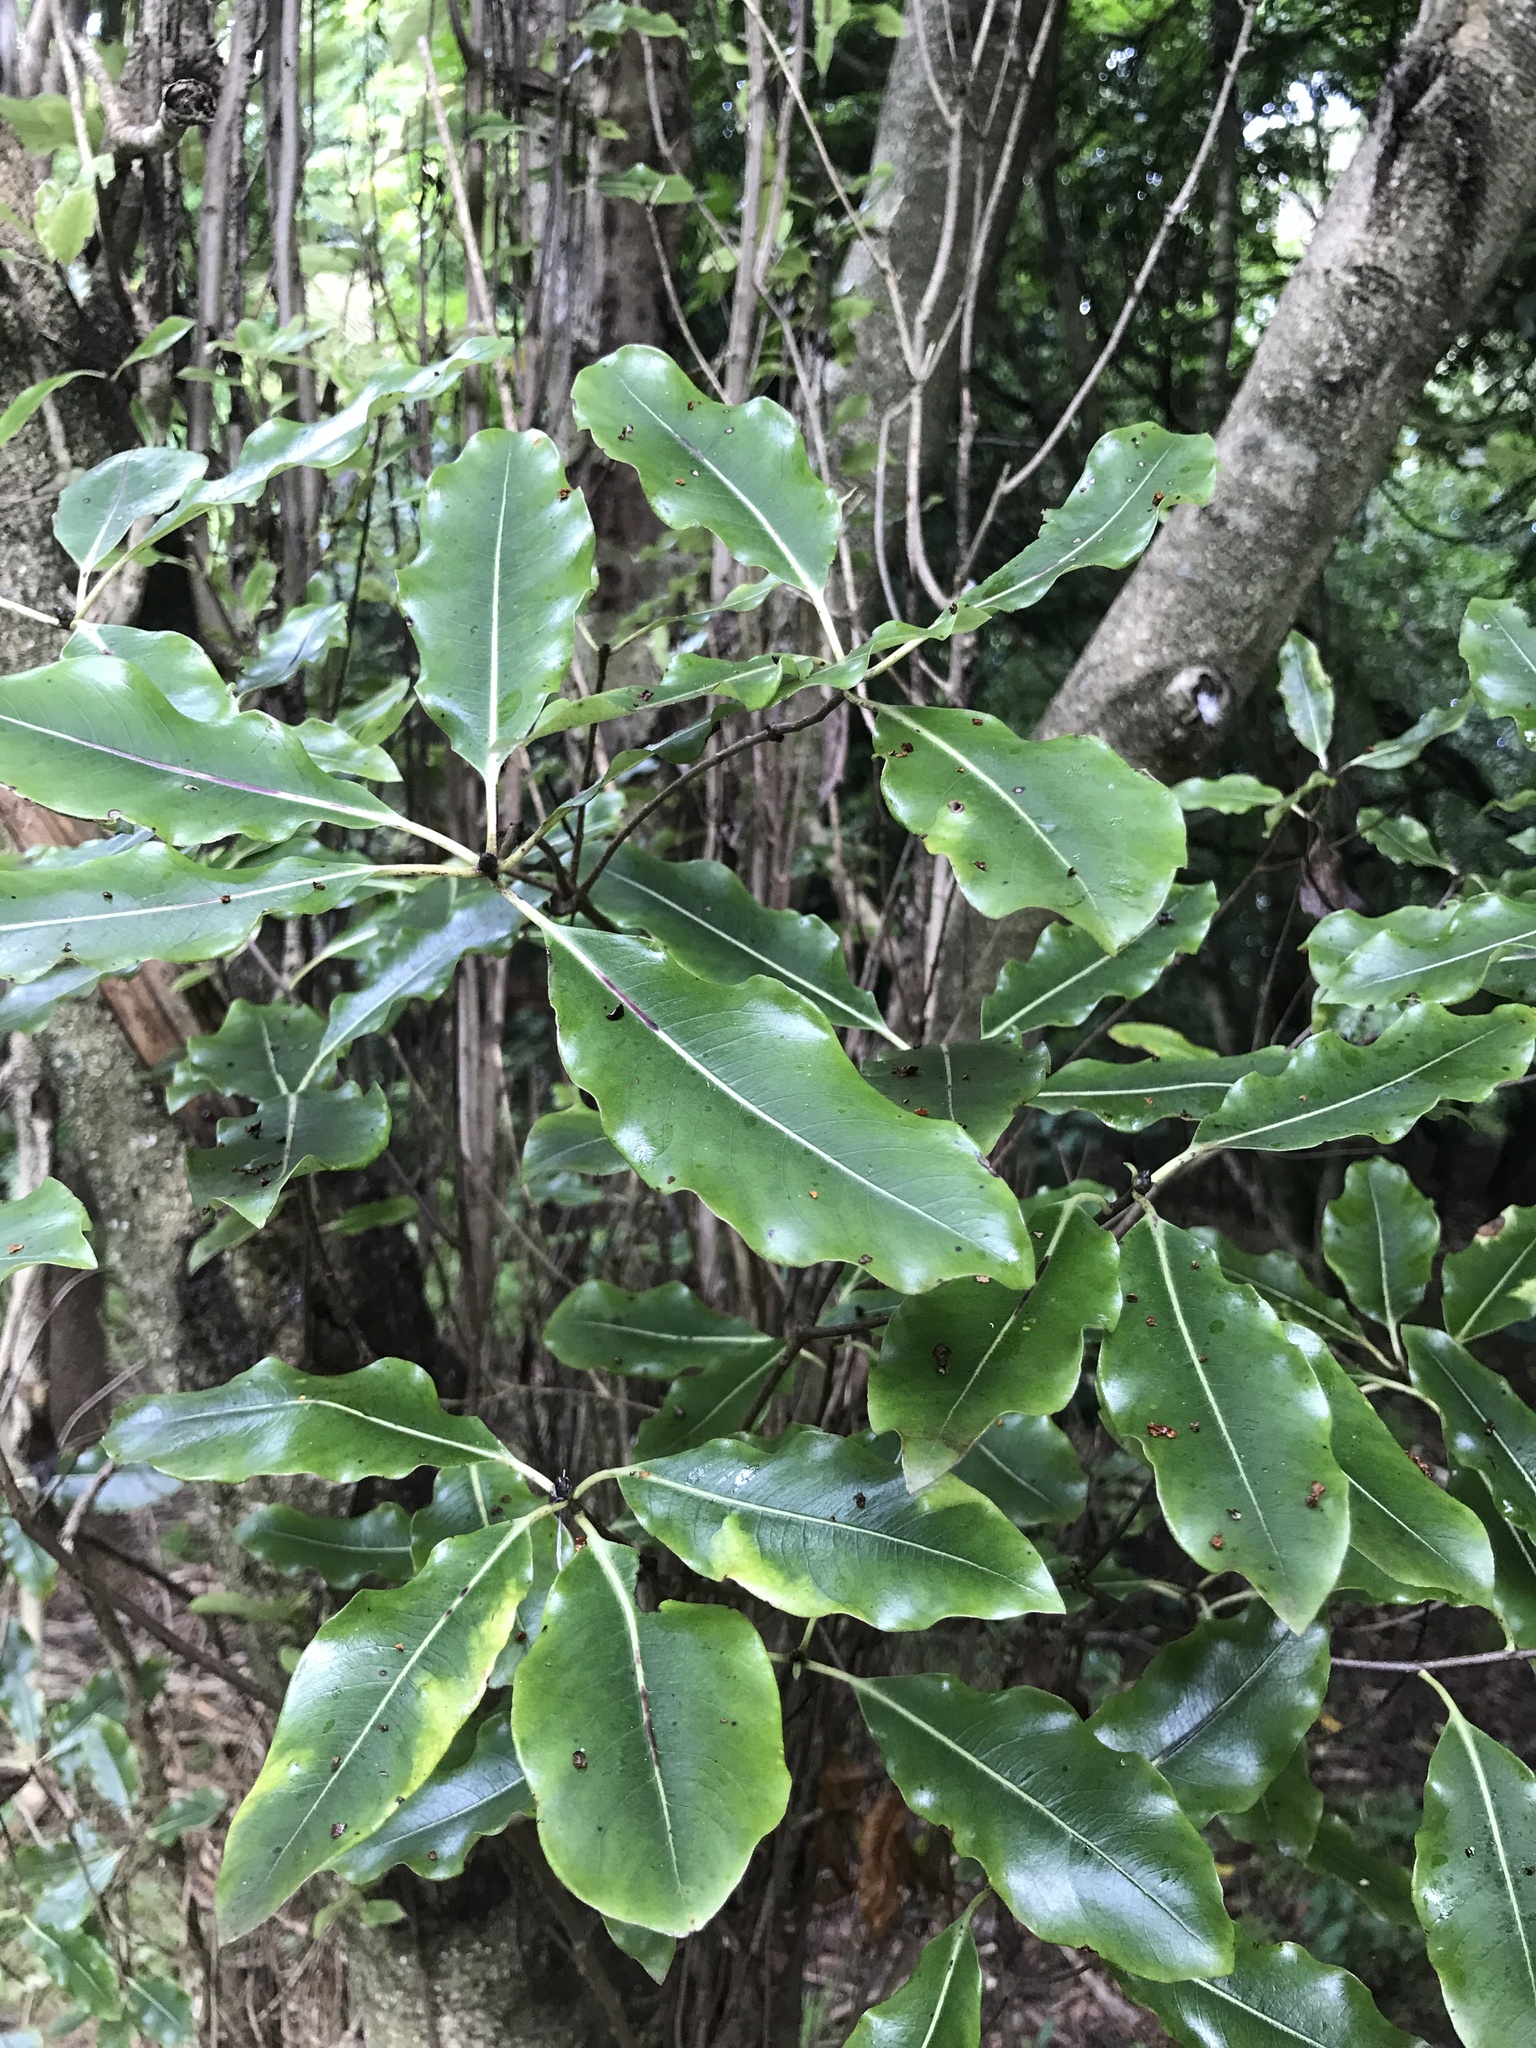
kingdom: Plantae
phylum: Tracheophyta
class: Magnoliopsida
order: Apiales
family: Pittosporaceae
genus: Pittosporum
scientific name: Pittosporum eugenioides
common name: Lemonwood
